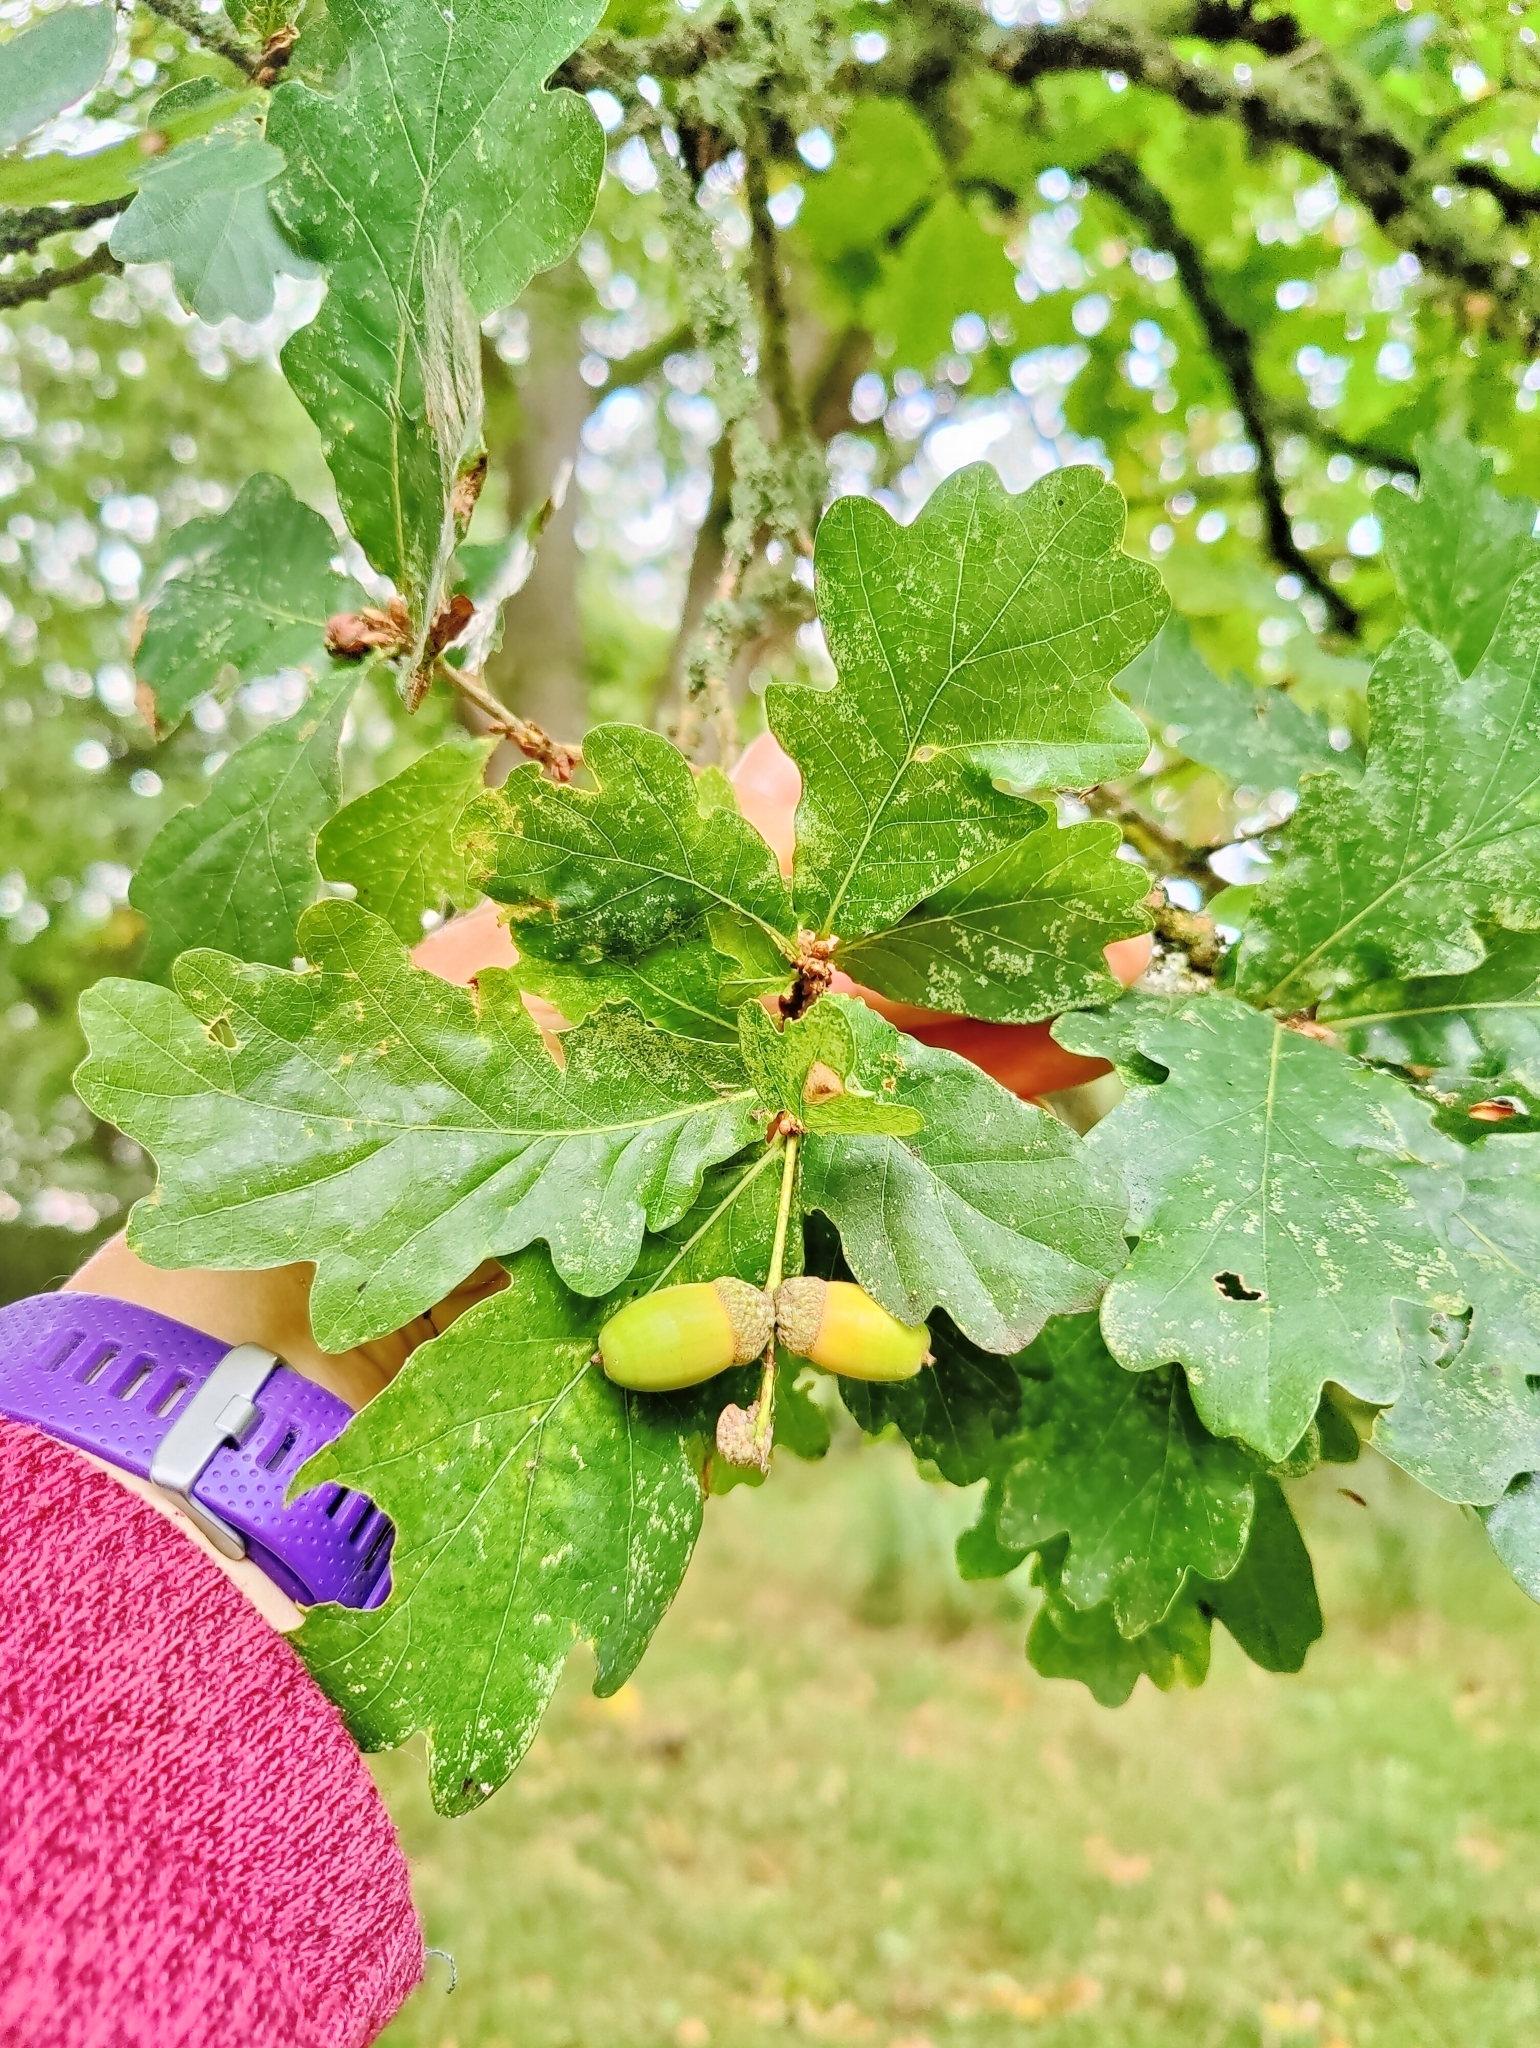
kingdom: Plantae
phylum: Tracheophyta
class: Magnoliopsida
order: Fagales
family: Fagaceae
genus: Quercus
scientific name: Quercus robur
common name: Pedunculate oak
